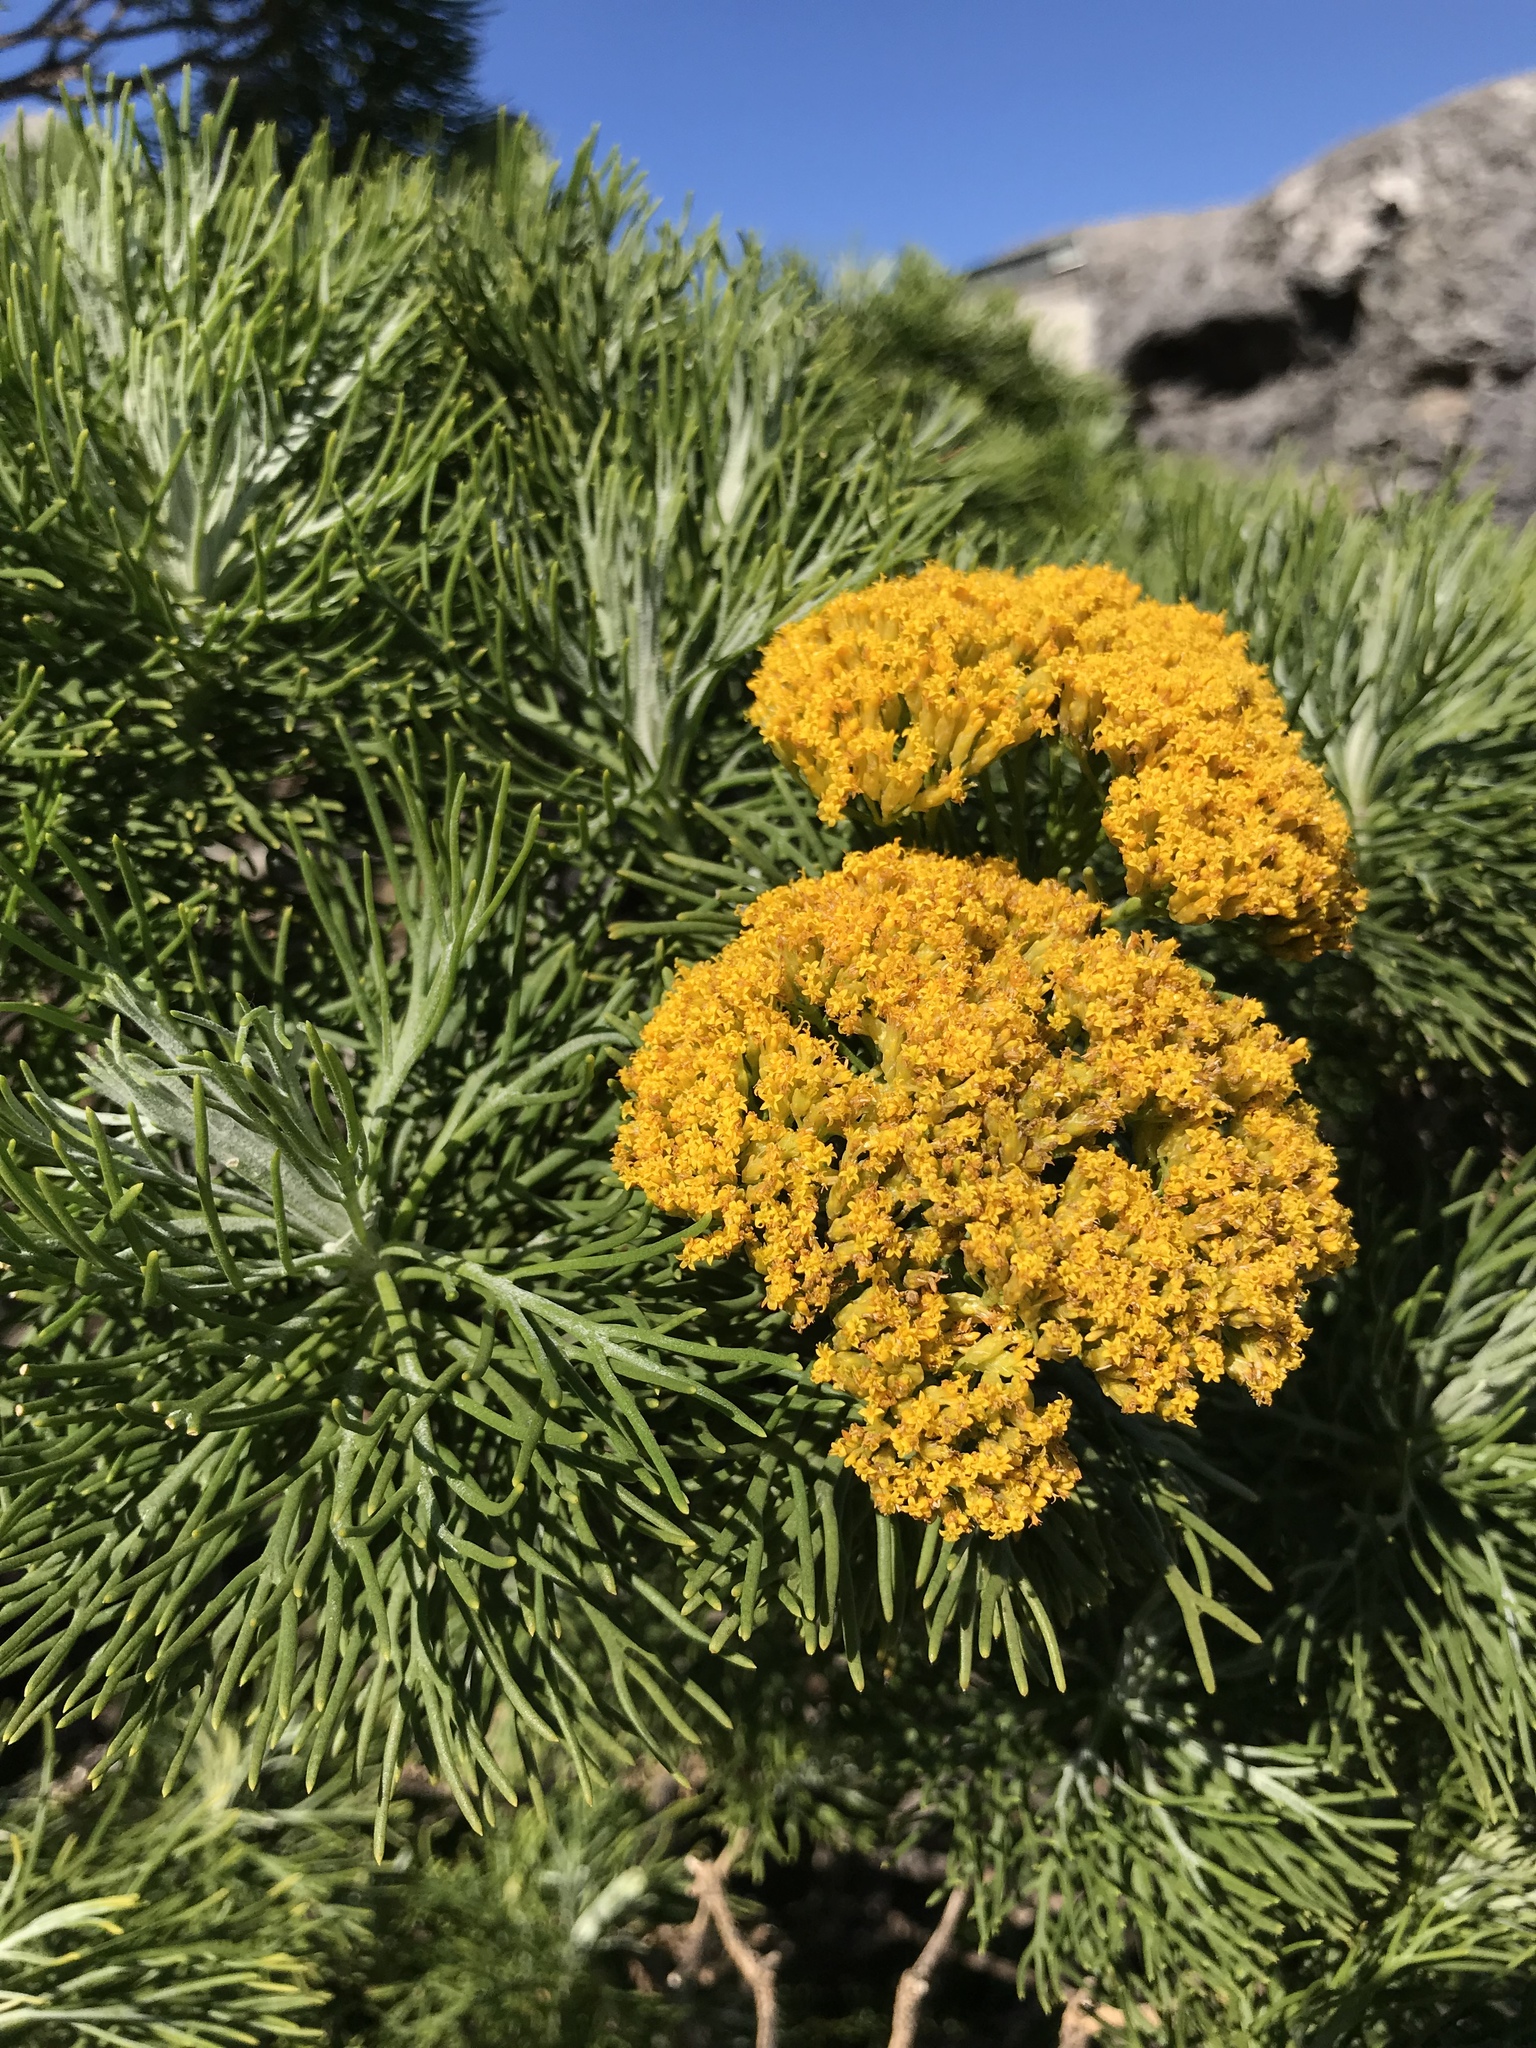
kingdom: Plantae
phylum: Tracheophyta
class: Magnoliopsida
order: Asterales
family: Asteraceae
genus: Hymenolepis
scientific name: Hymenolepis crithmifolia
